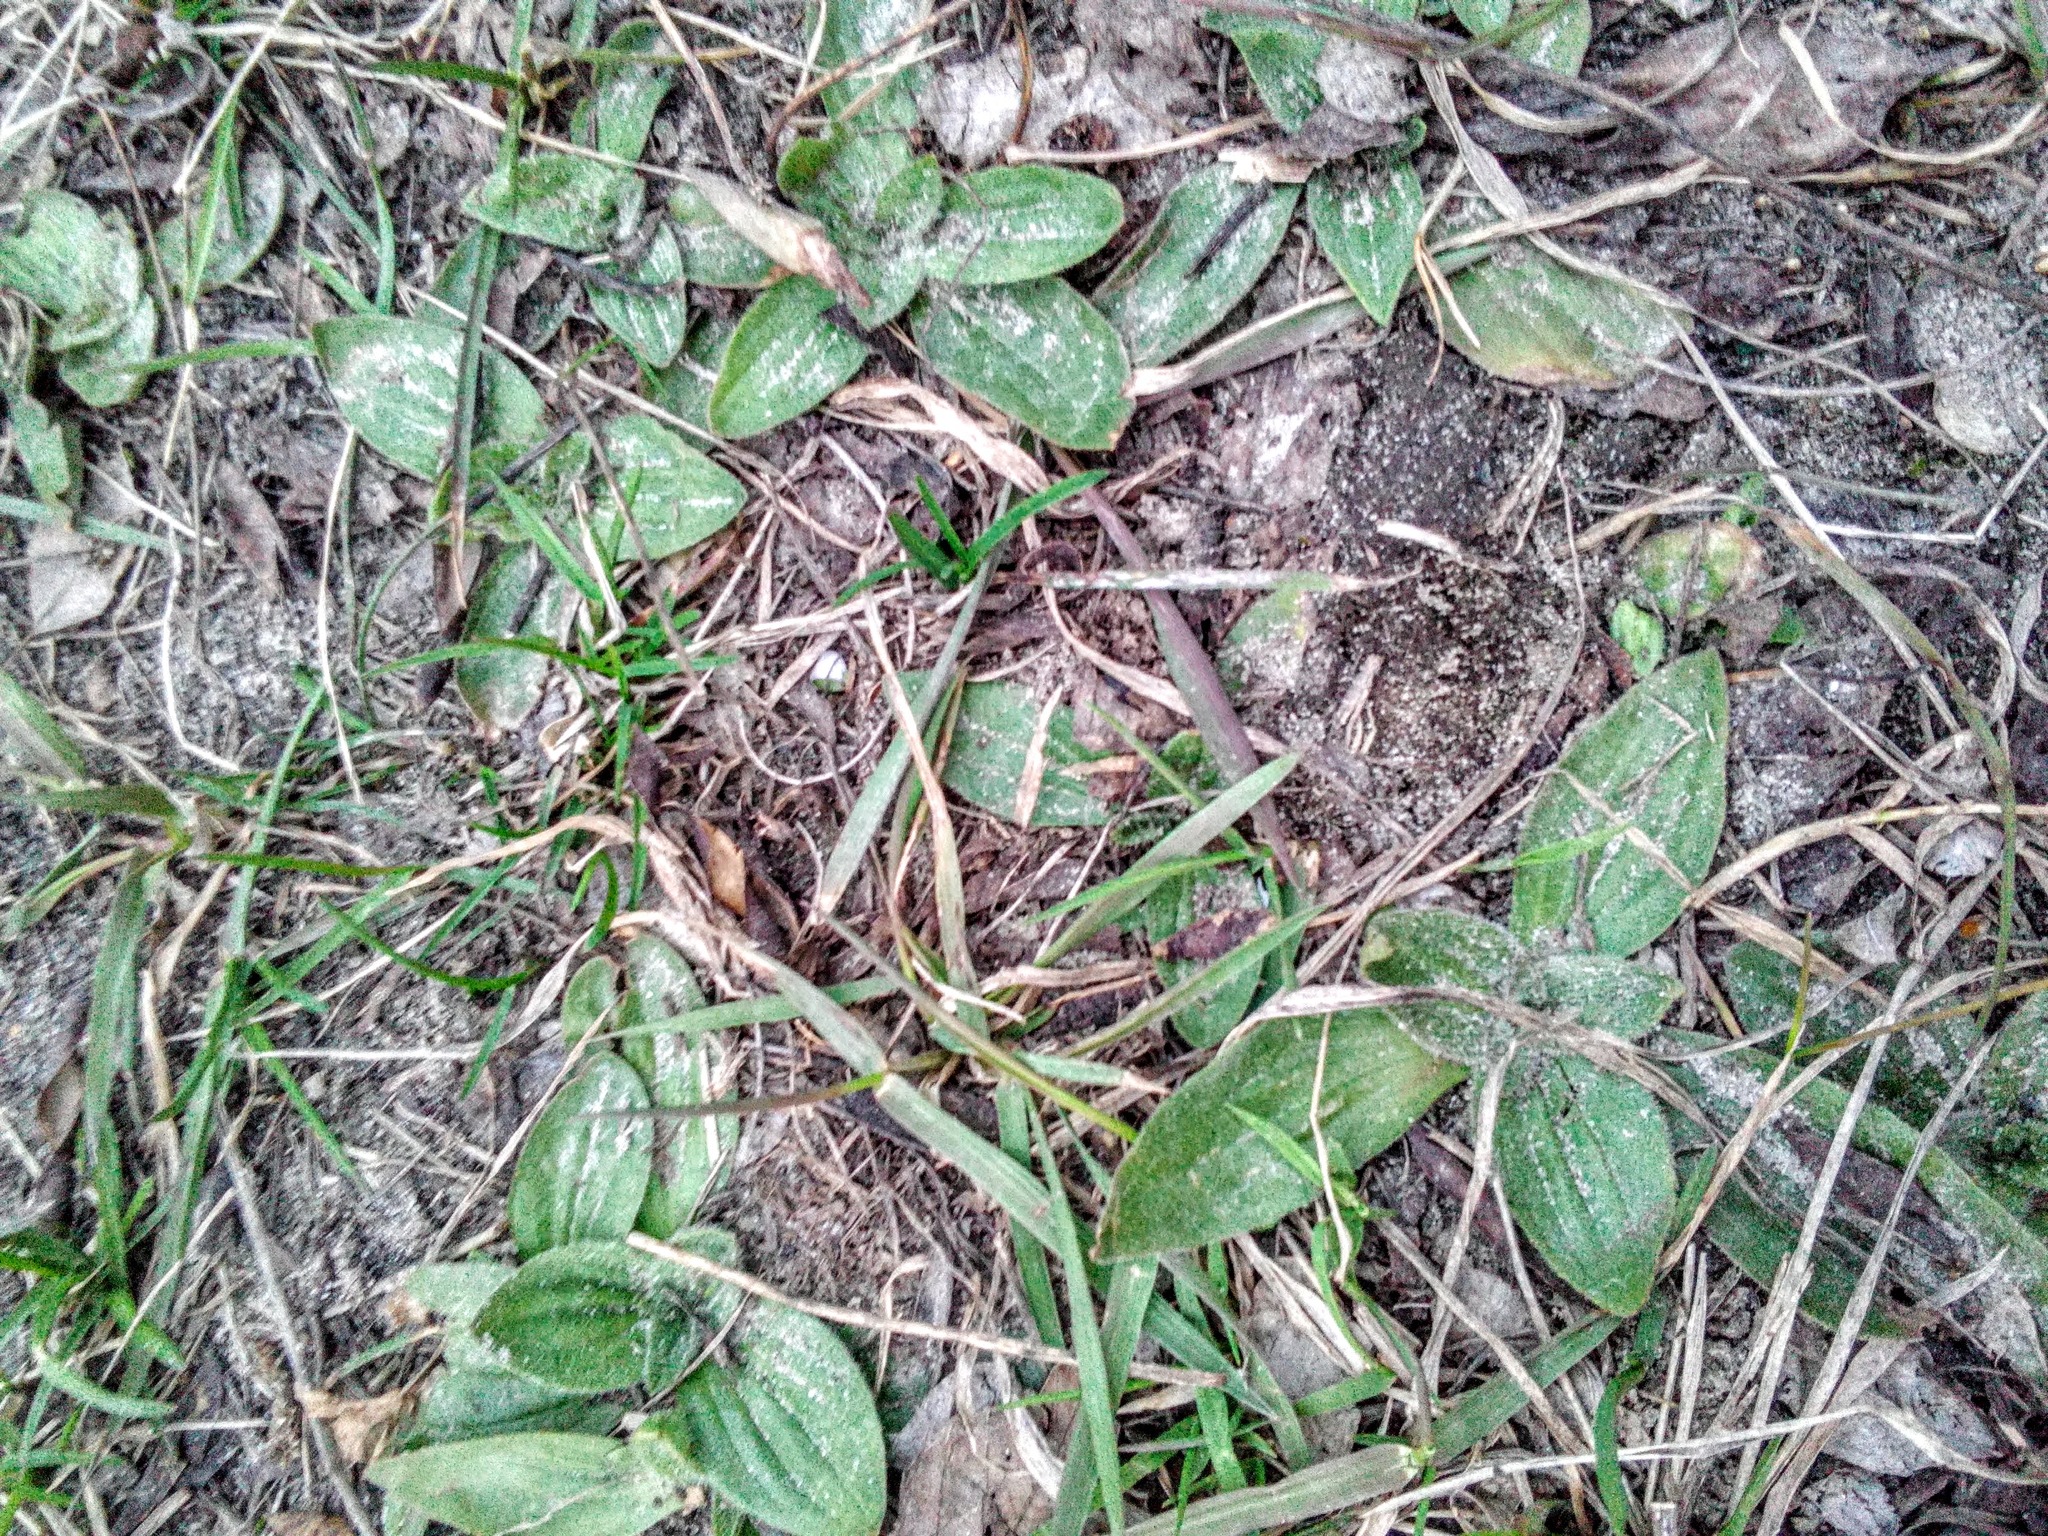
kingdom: Plantae
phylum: Tracheophyta
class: Magnoliopsida
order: Lamiales
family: Plantaginaceae
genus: Plantago
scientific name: Plantago media
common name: Hoary plantain
